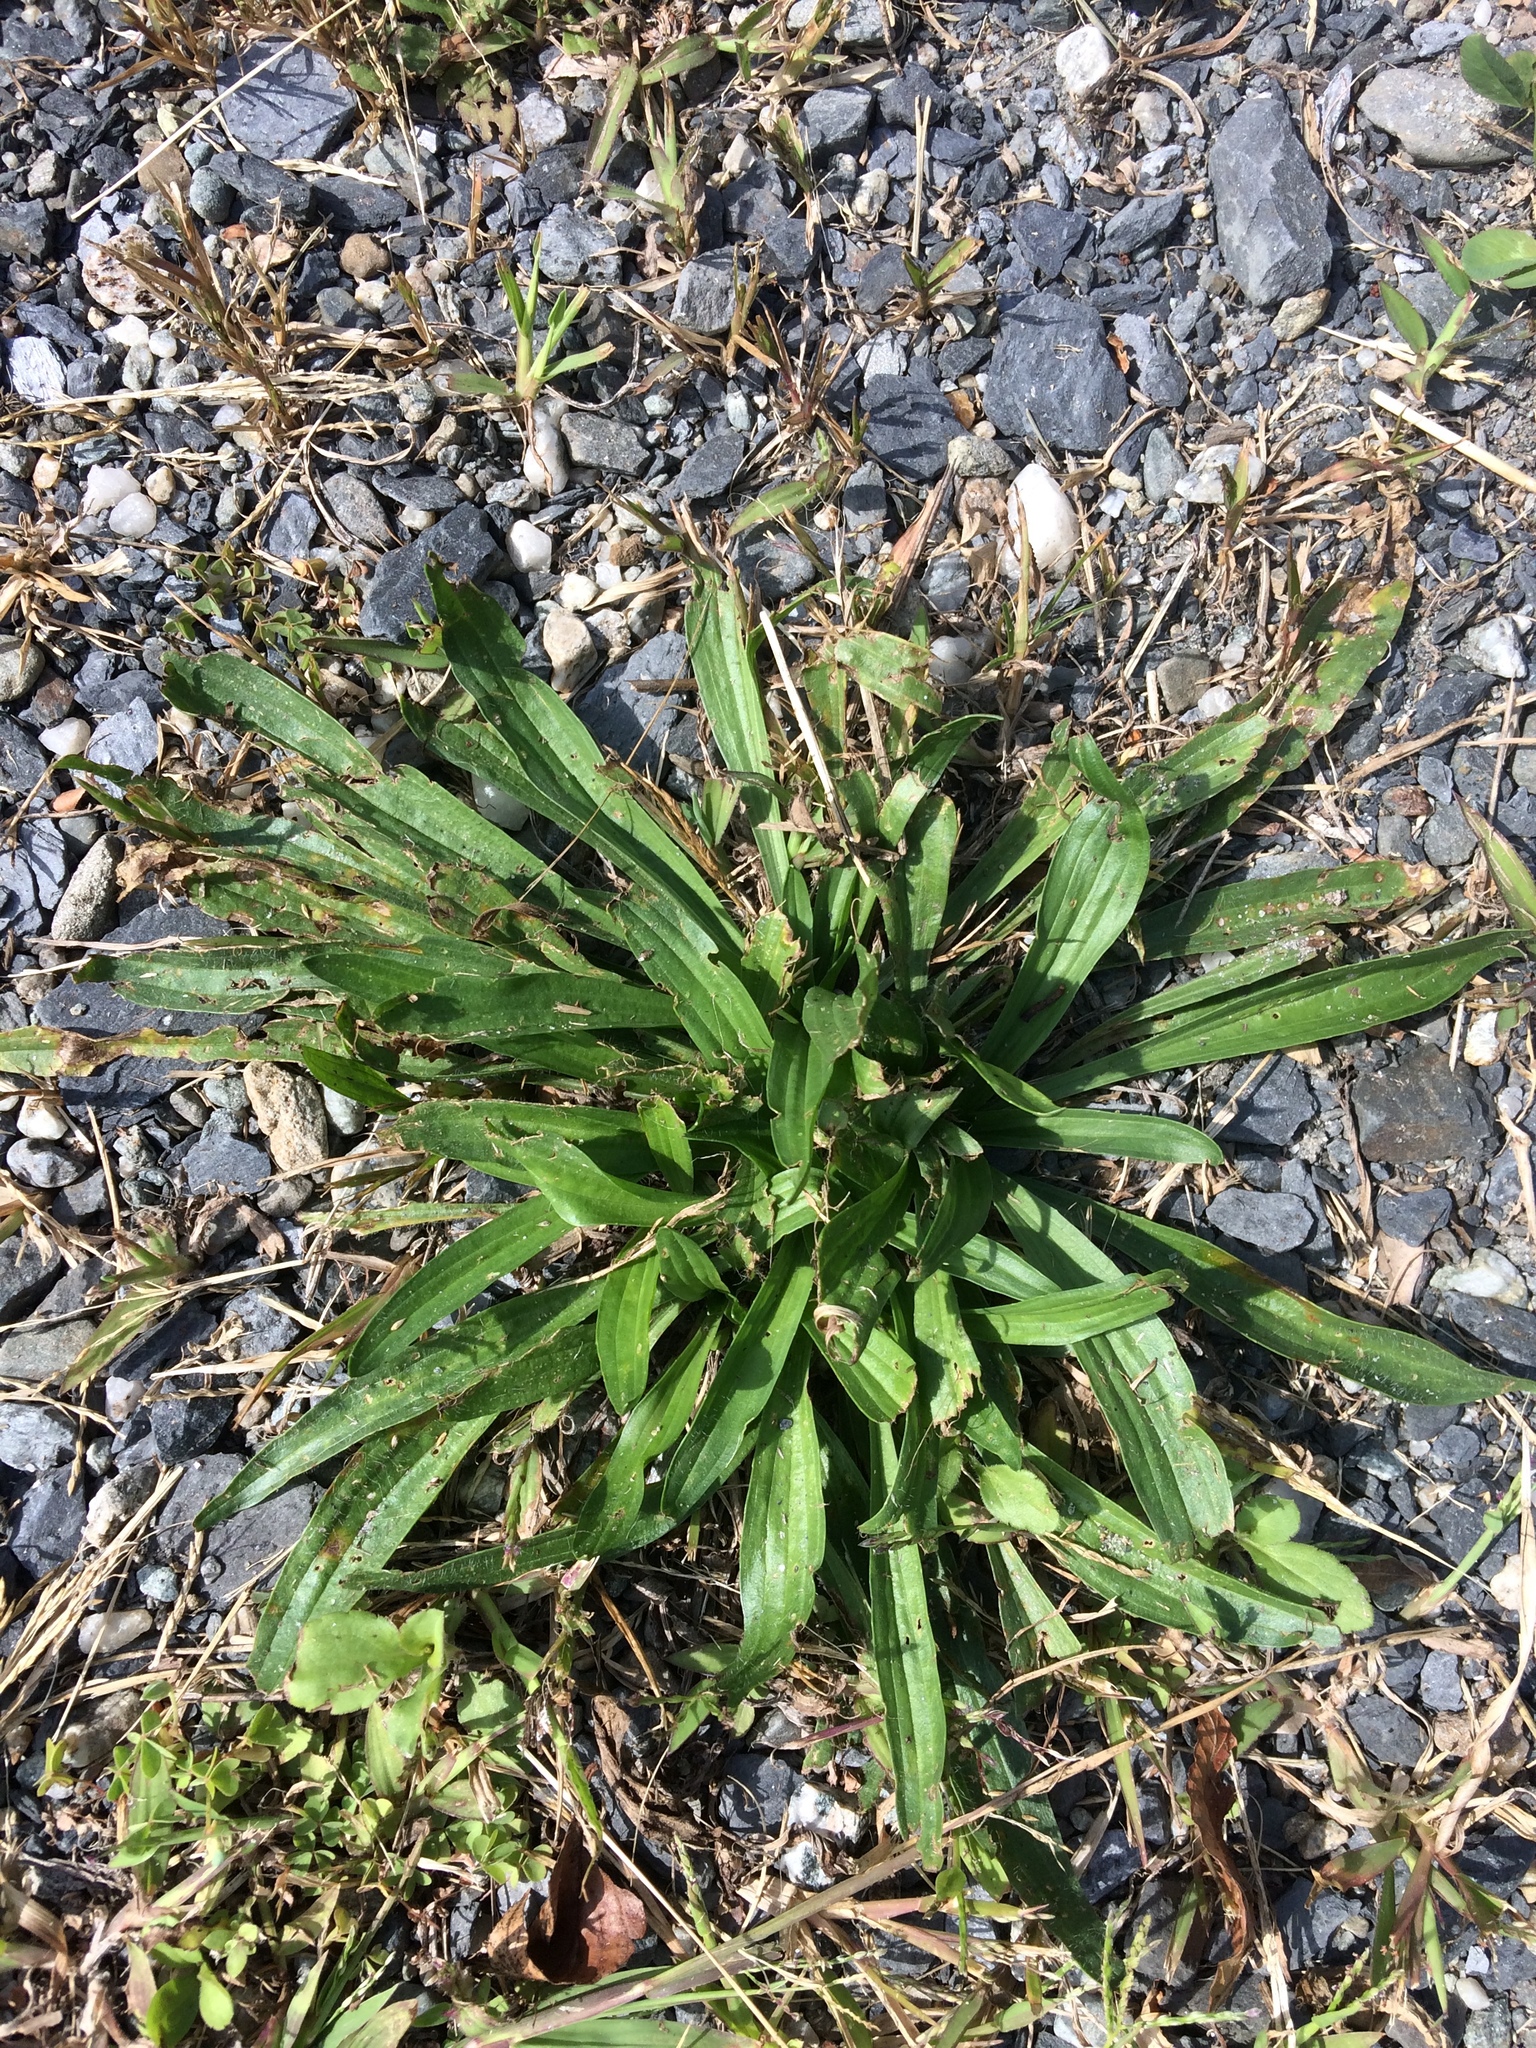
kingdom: Plantae
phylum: Tracheophyta
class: Magnoliopsida
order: Lamiales
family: Plantaginaceae
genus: Plantago
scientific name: Plantago lanceolata
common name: Ribwort plantain
